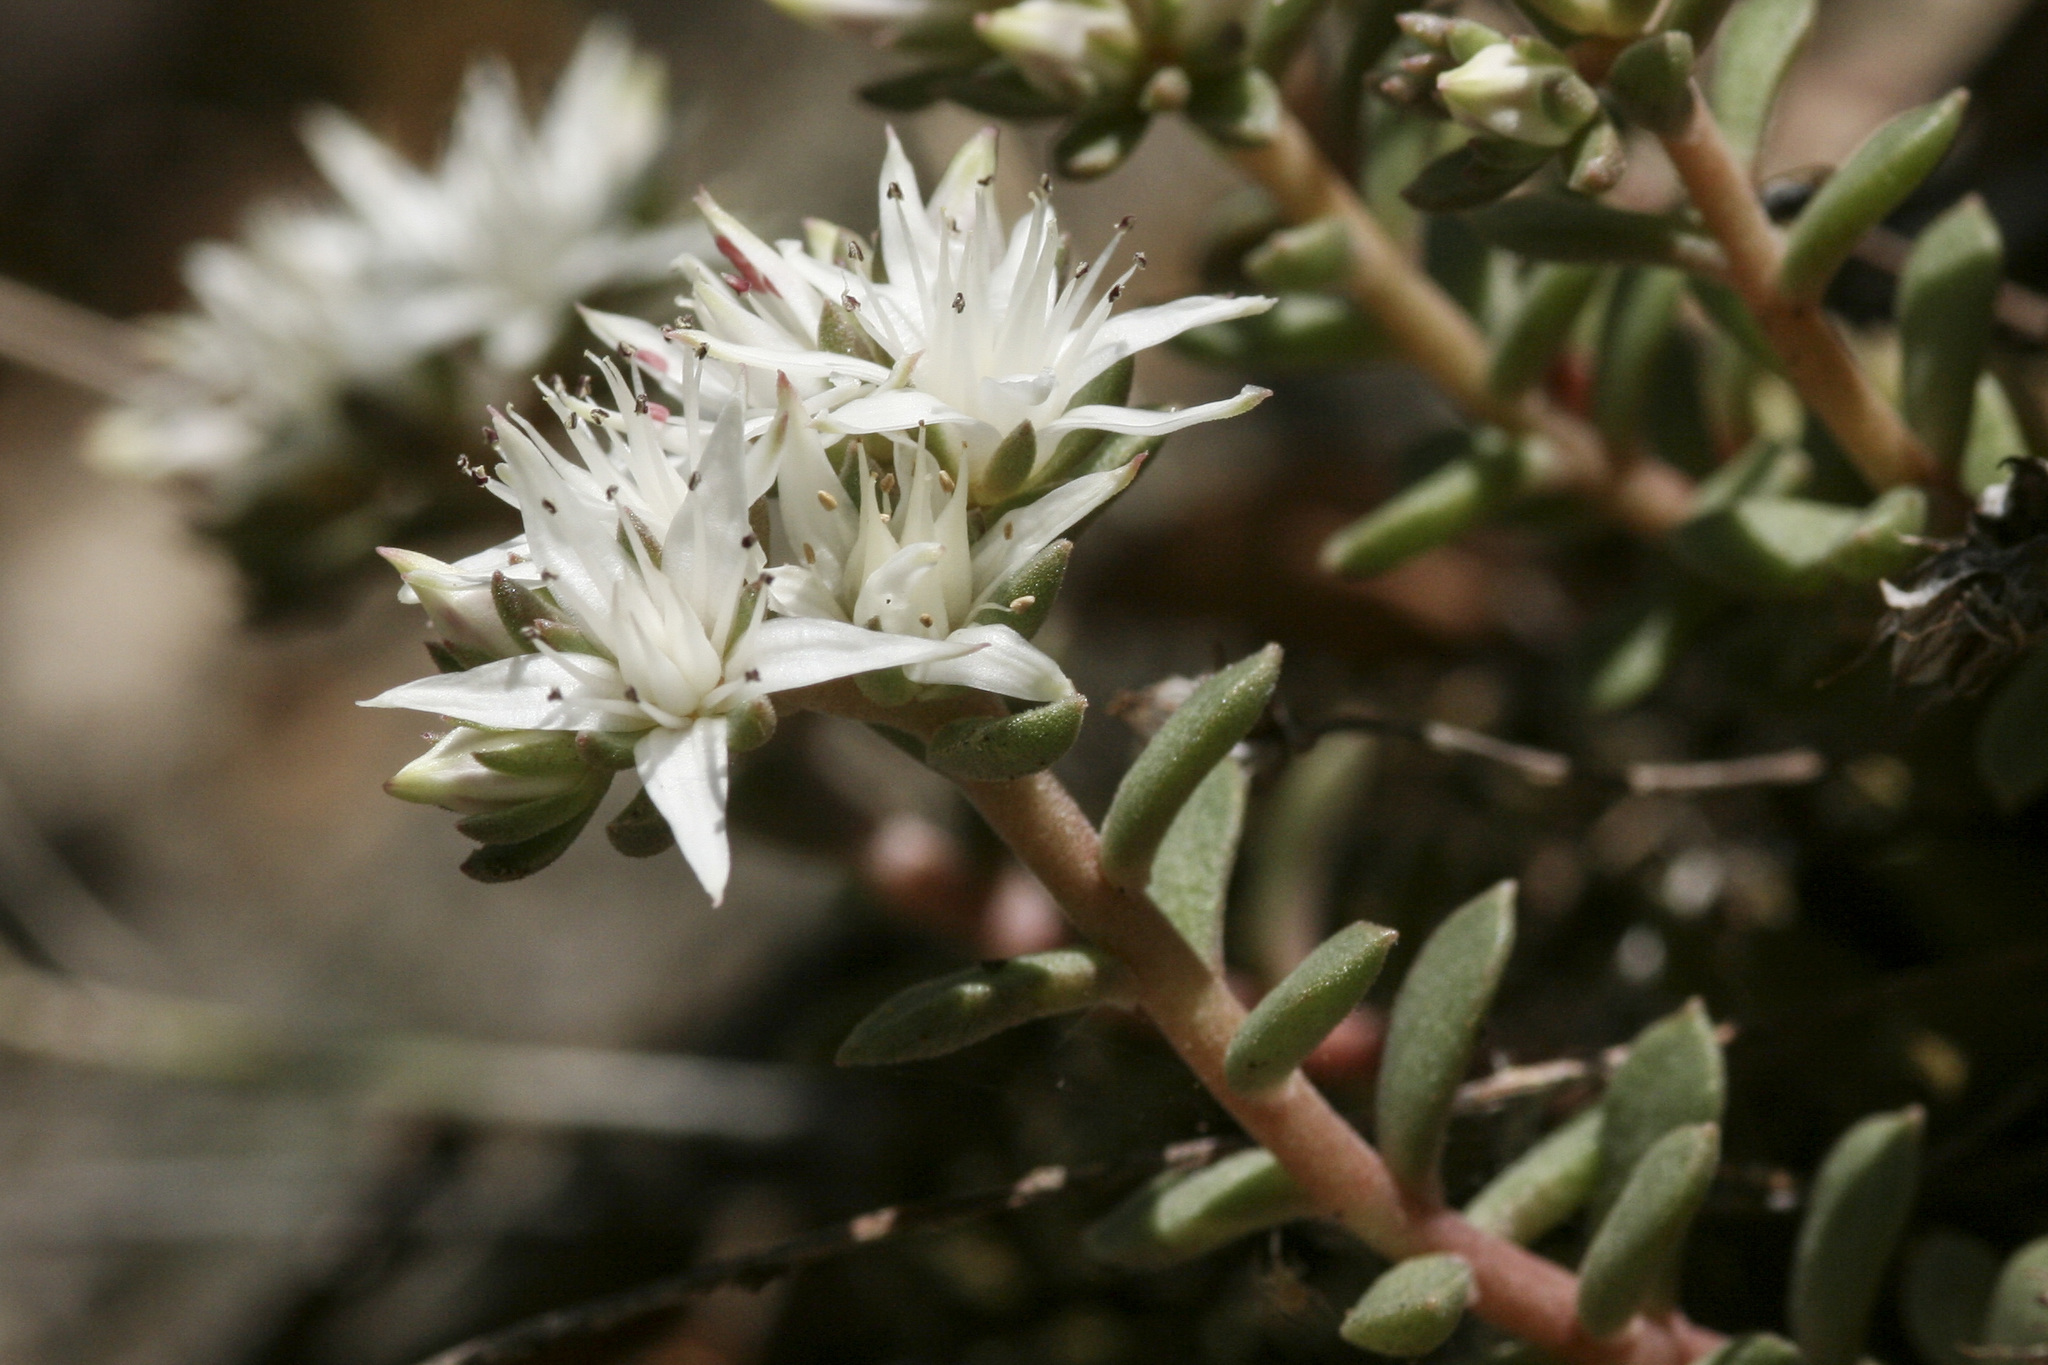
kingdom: Plantae
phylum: Tracheophyta
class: Magnoliopsida
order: Saxifragales
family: Crassulaceae
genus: Sedum
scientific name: Sedum cockerellii
